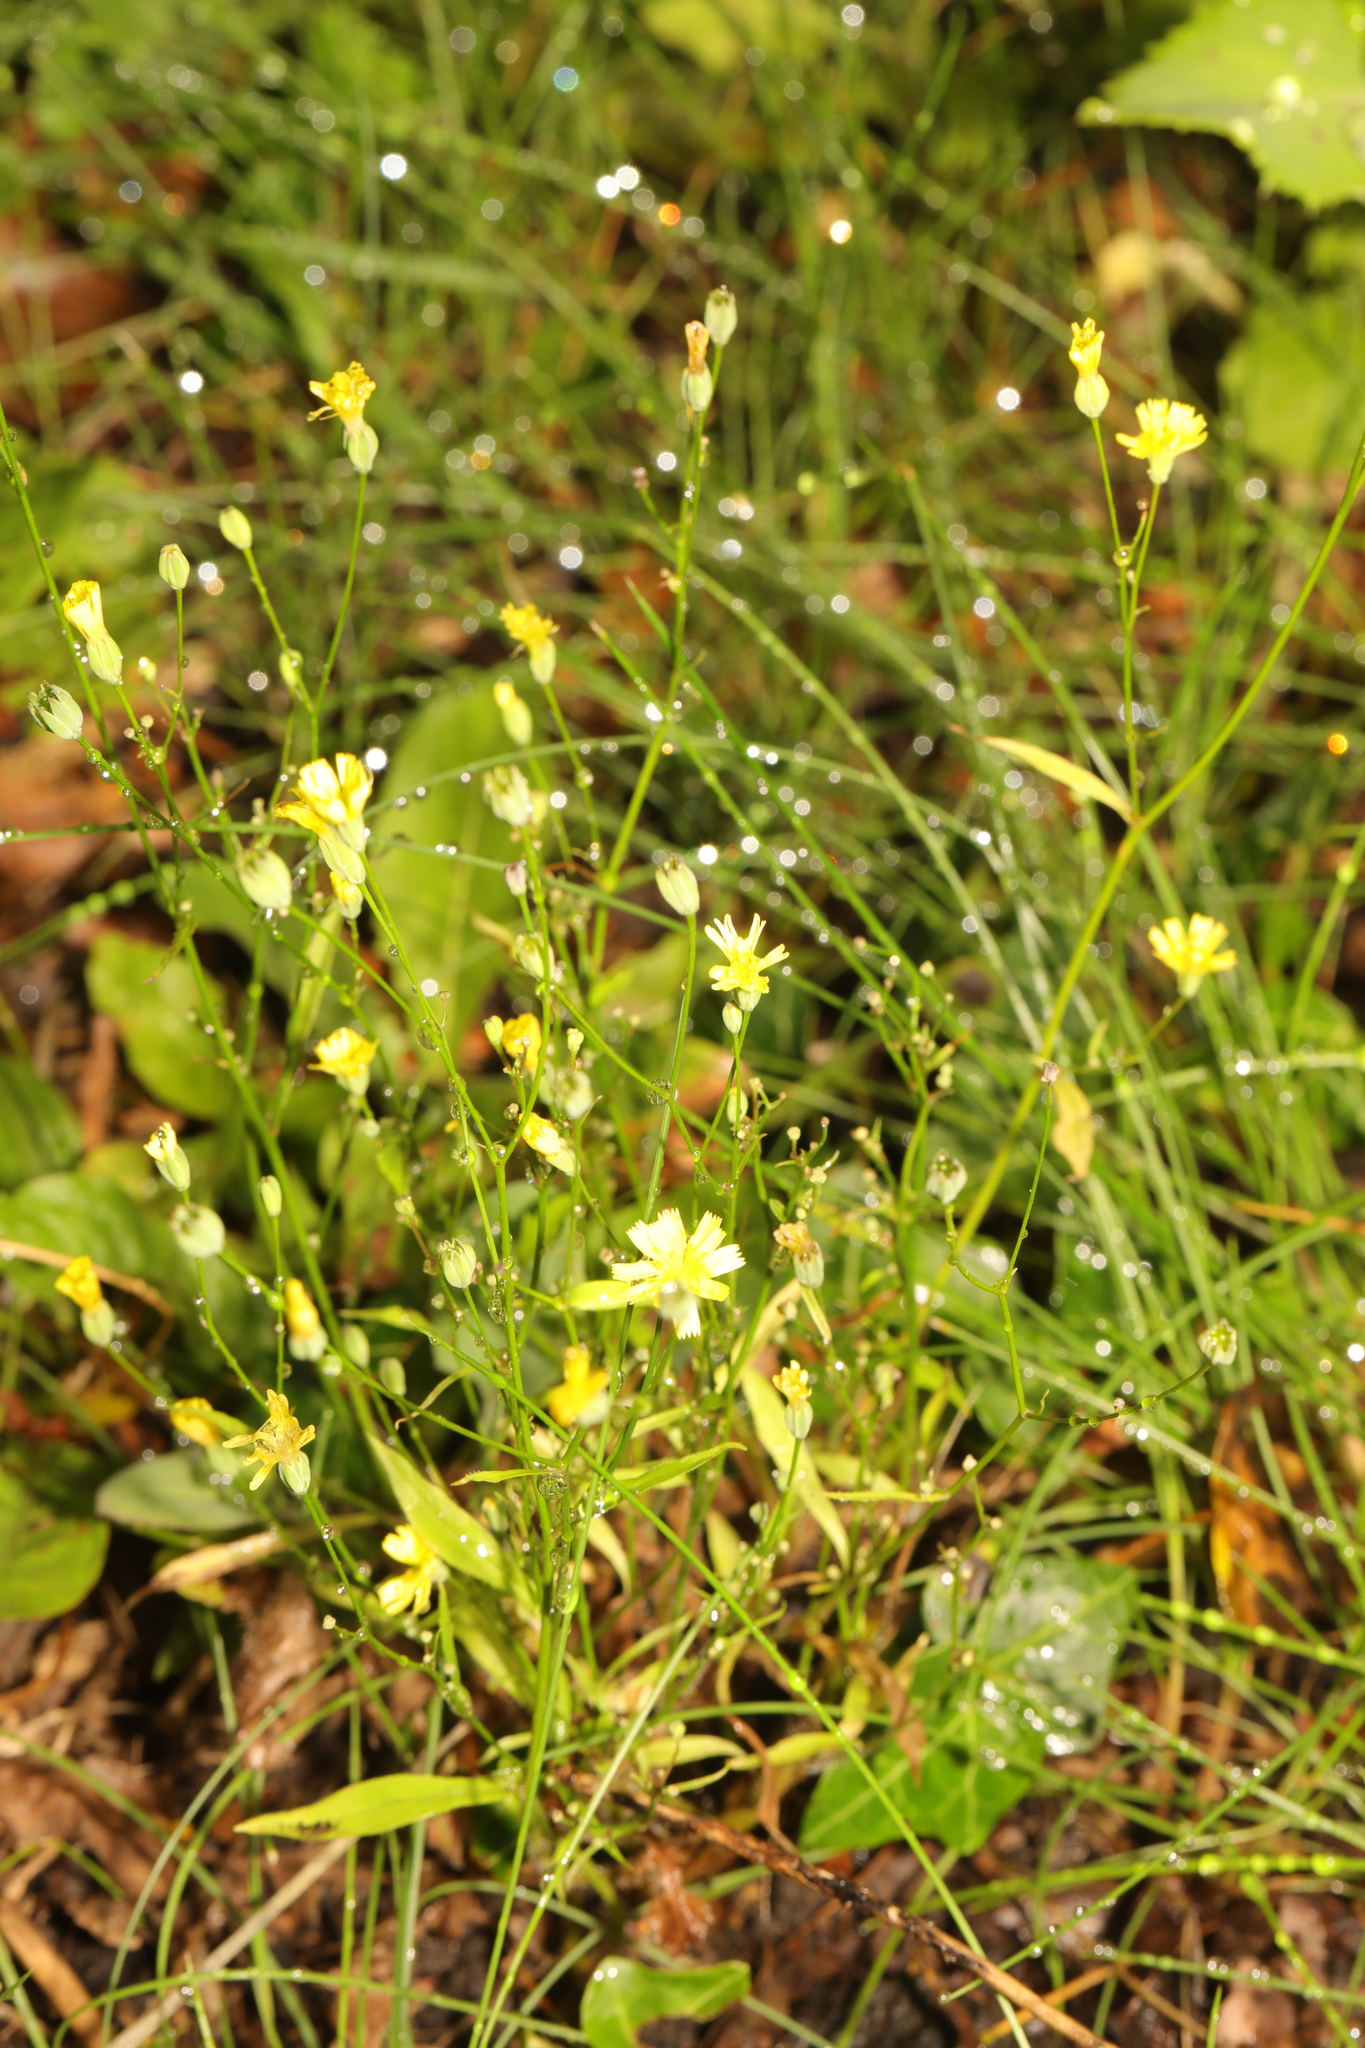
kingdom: Plantae
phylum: Tracheophyta
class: Magnoliopsida
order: Asterales
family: Asteraceae
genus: Lapsana
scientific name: Lapsana communis
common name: Nipplewort
